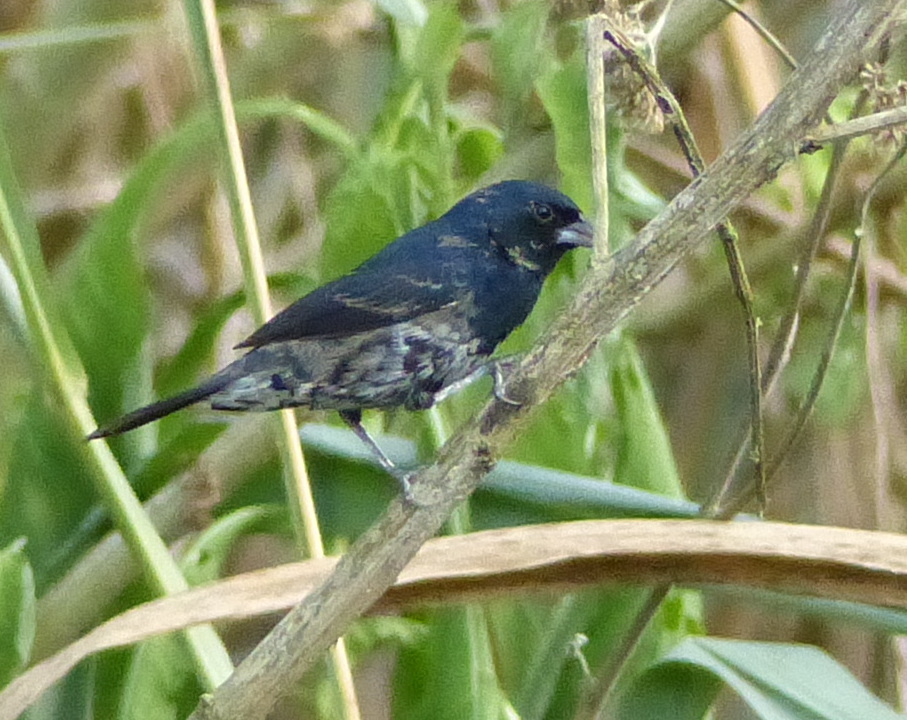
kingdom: Animalia
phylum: Chordata
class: Aves
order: Passeriformes
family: Thraupidae
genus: Volatinia
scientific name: Volatinia jacarina
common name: Blue-black grassquit
